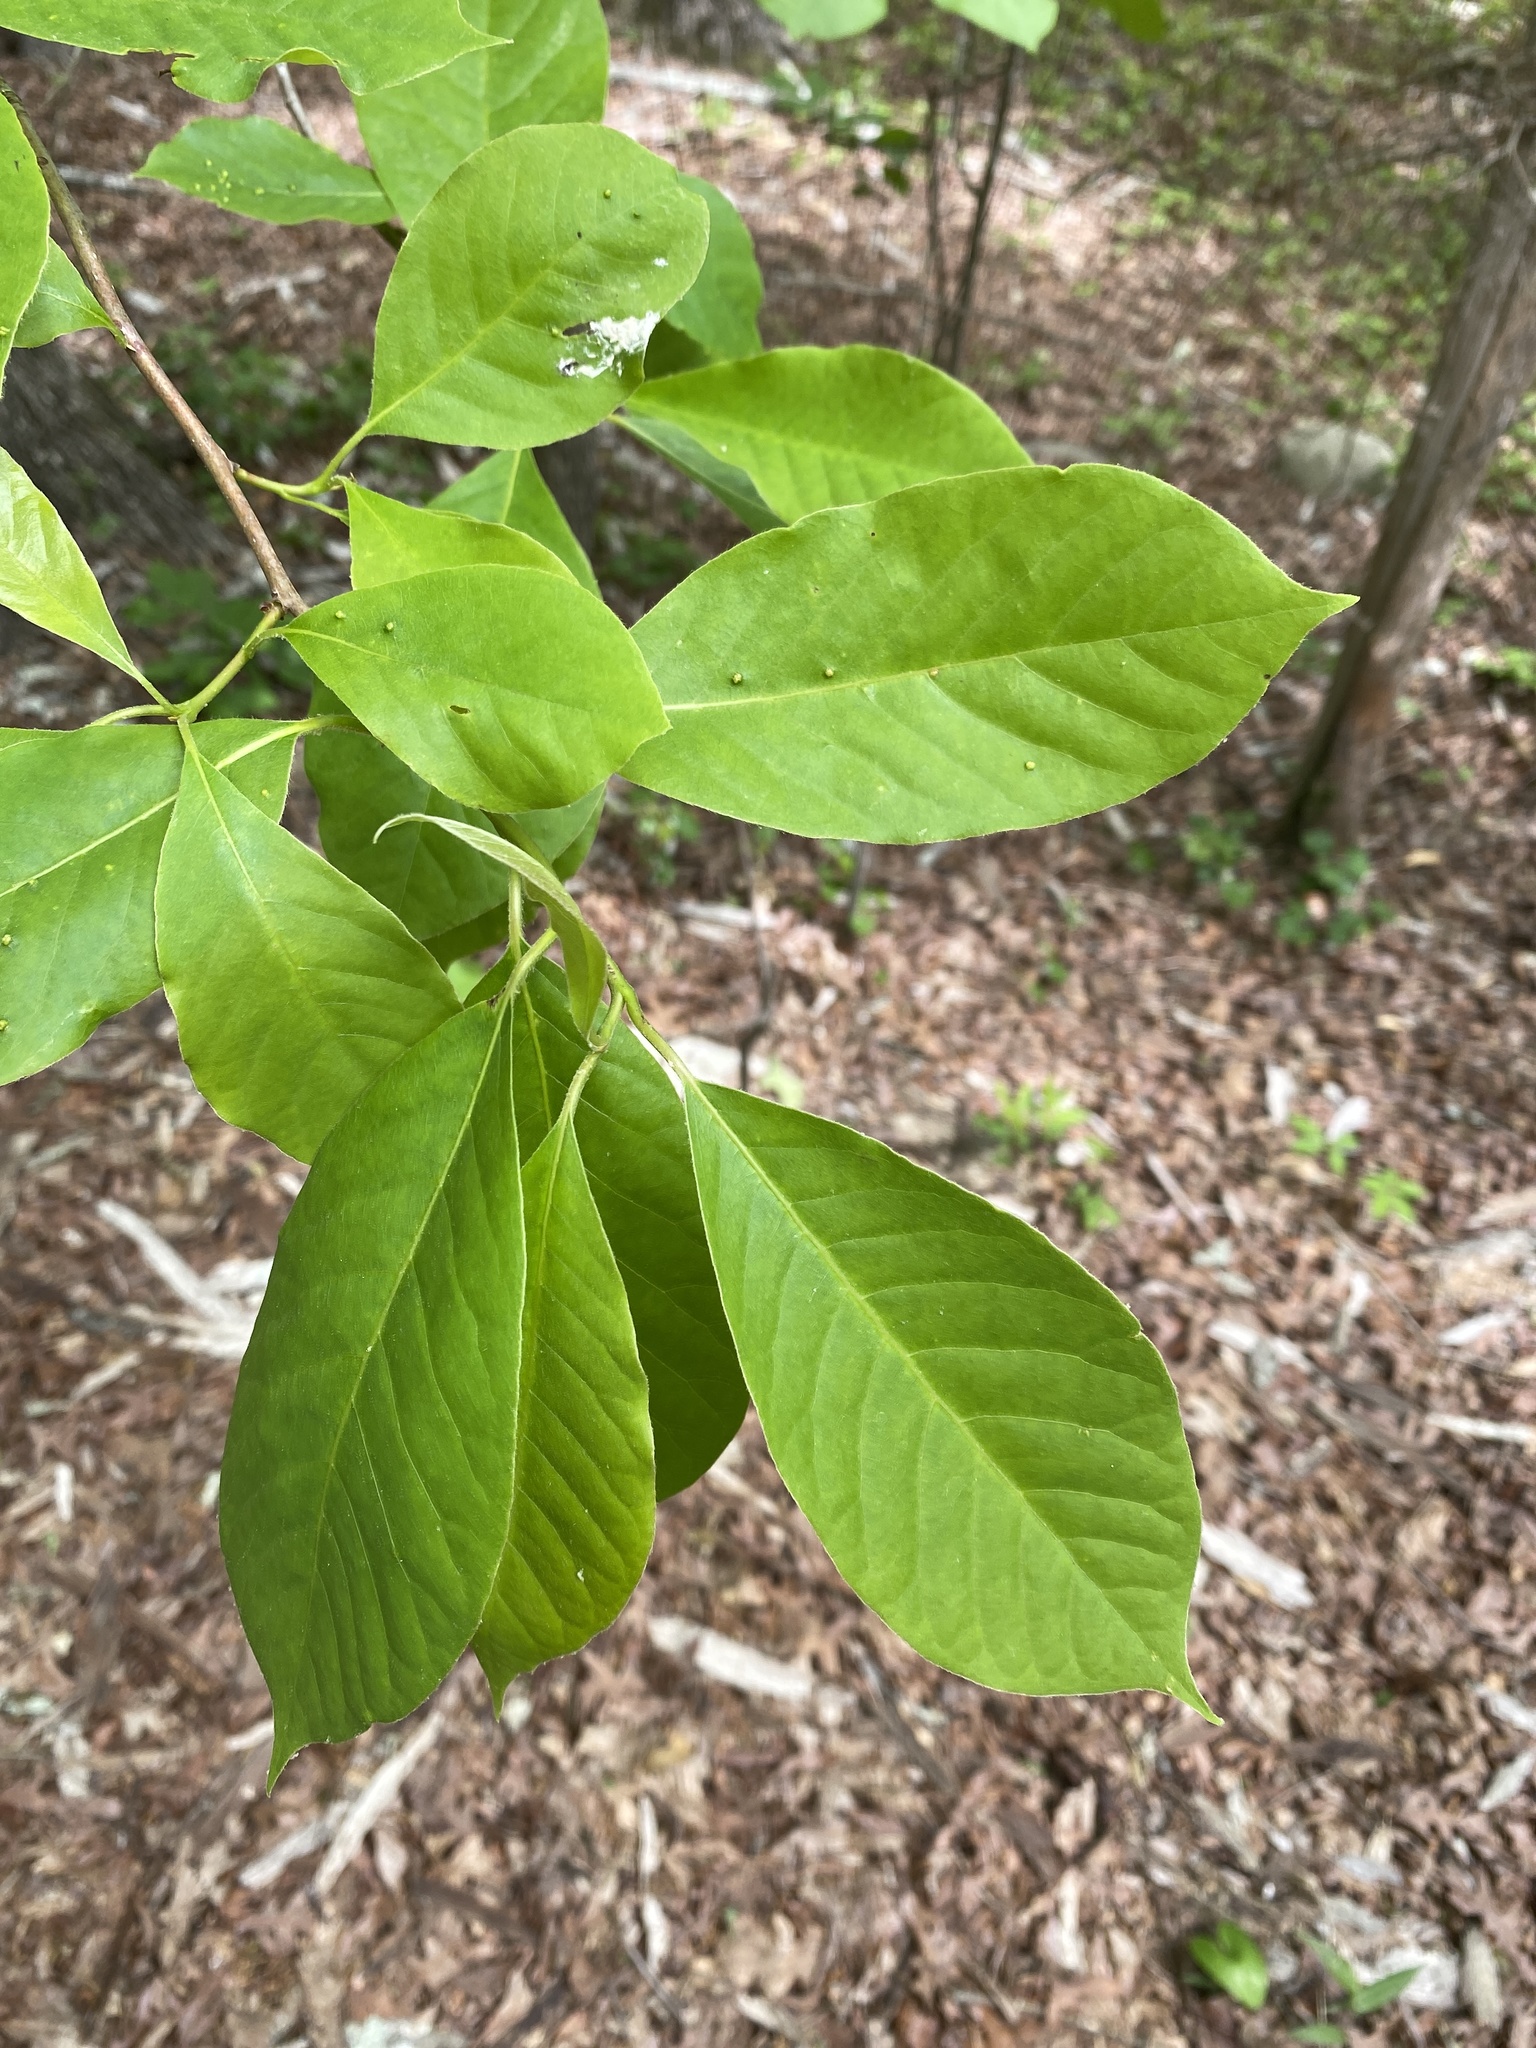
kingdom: Plantae
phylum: Tracheophyta
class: Magnoliopsida
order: Cornales
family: Nyssaceae
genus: Nyssa
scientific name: Nyssa sylvatica
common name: Black tupelo
